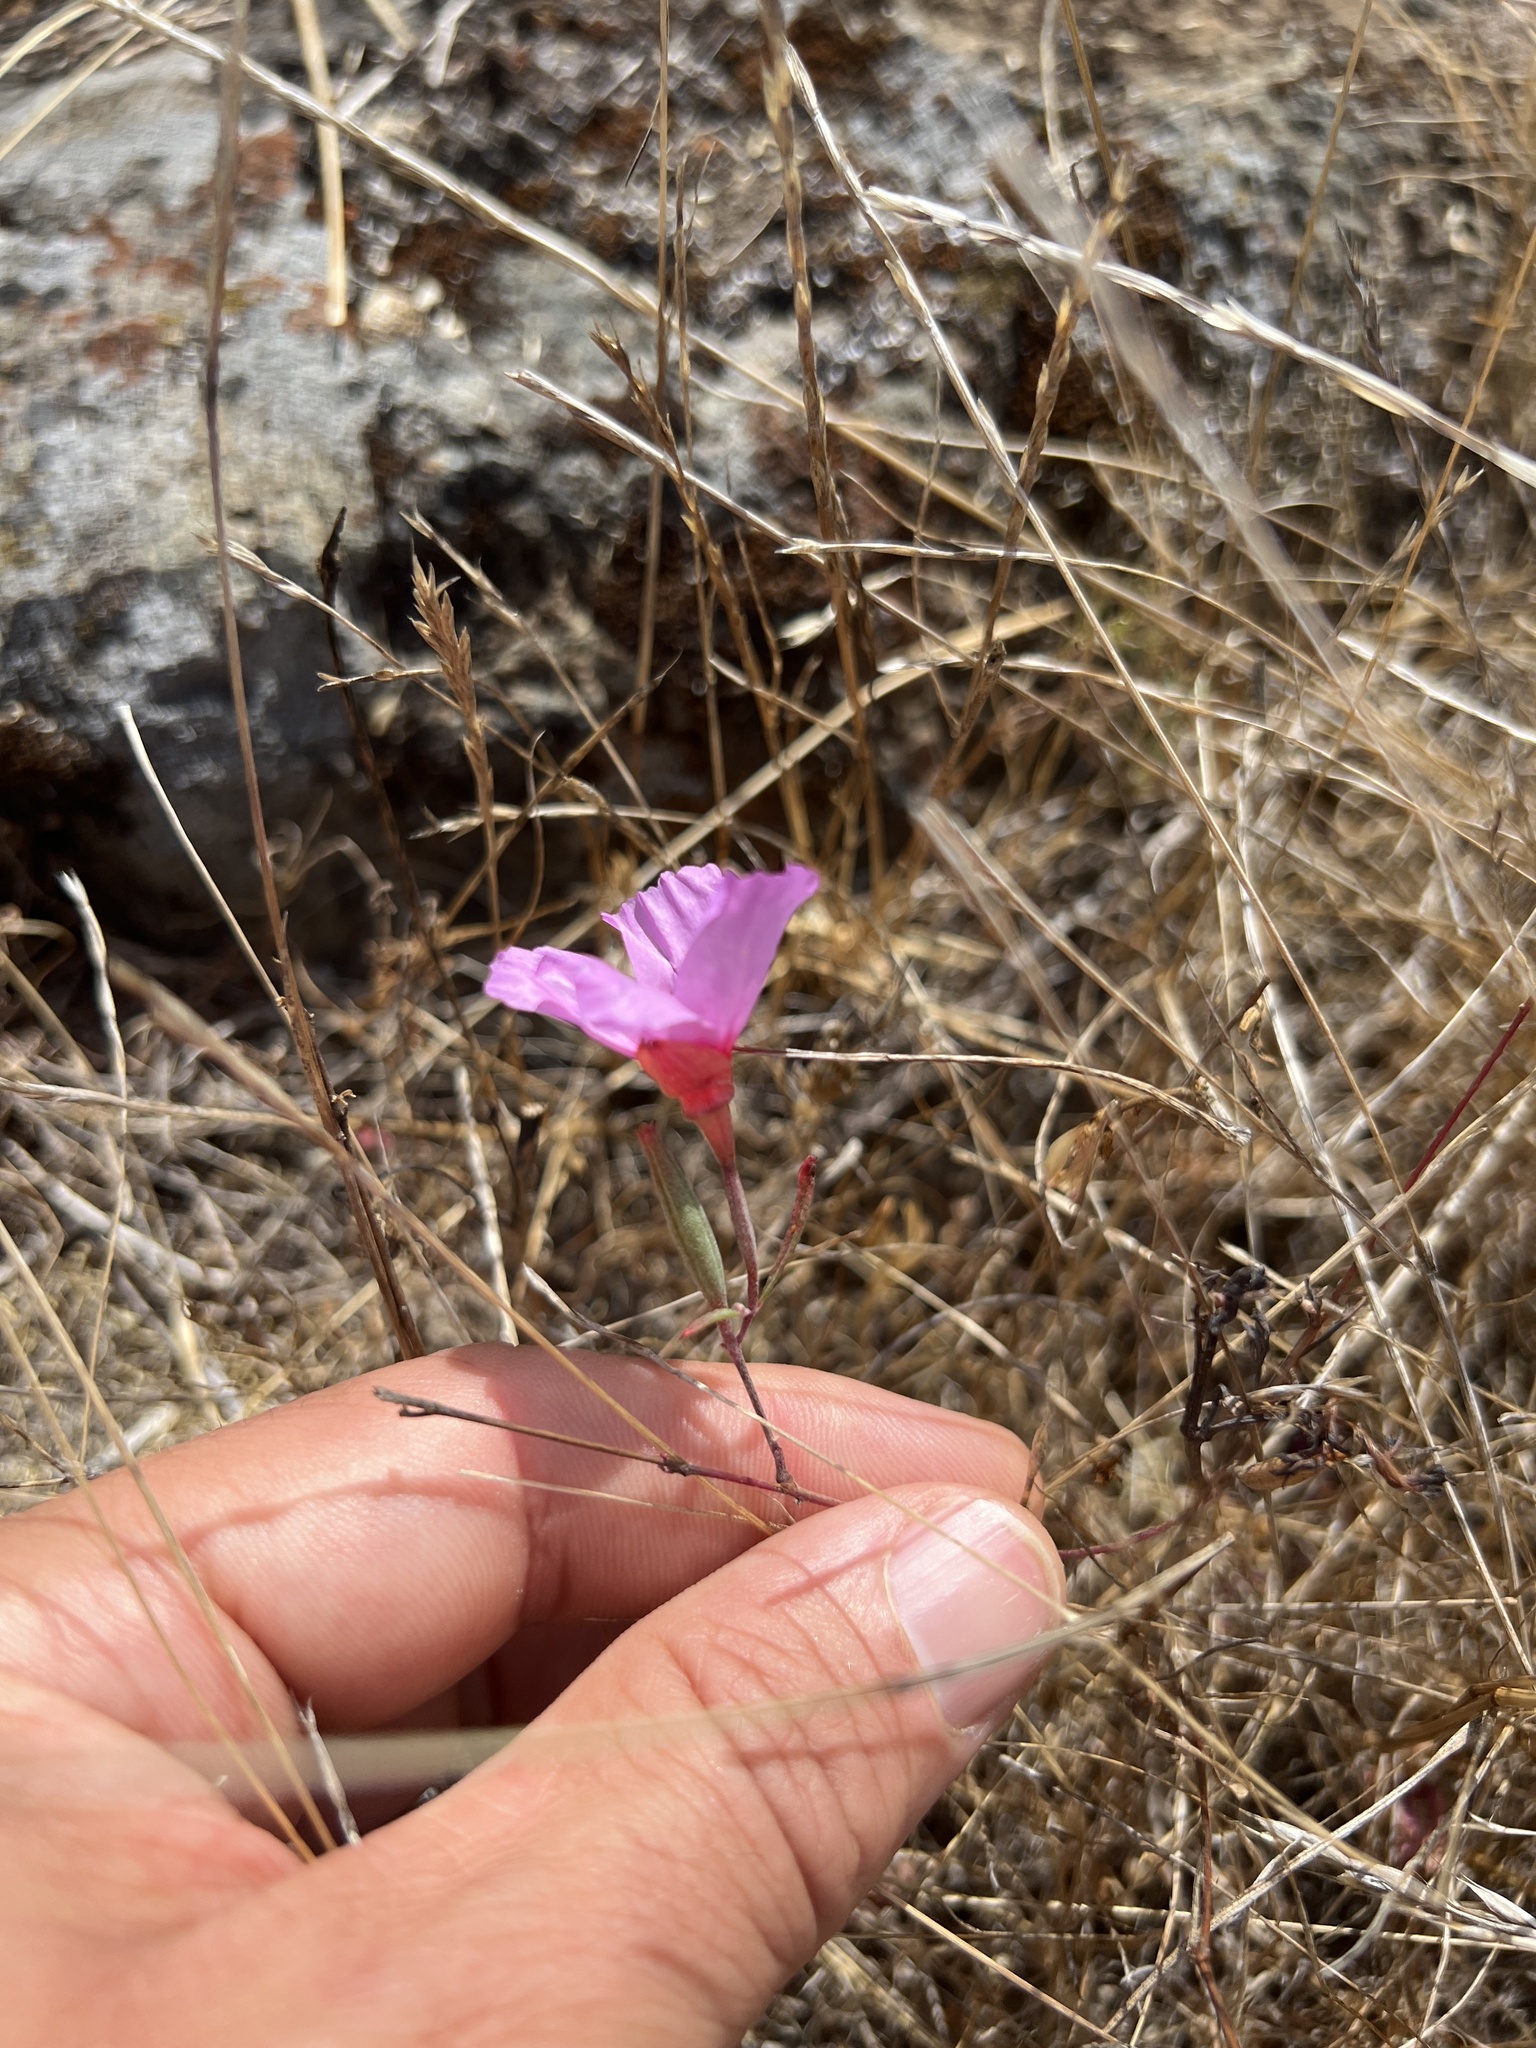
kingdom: Plantae
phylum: Tracheophyta
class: Magnoliopsida
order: Myrtales
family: Onagraceae
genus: Clarkia
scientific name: Clarkia rubicunda
